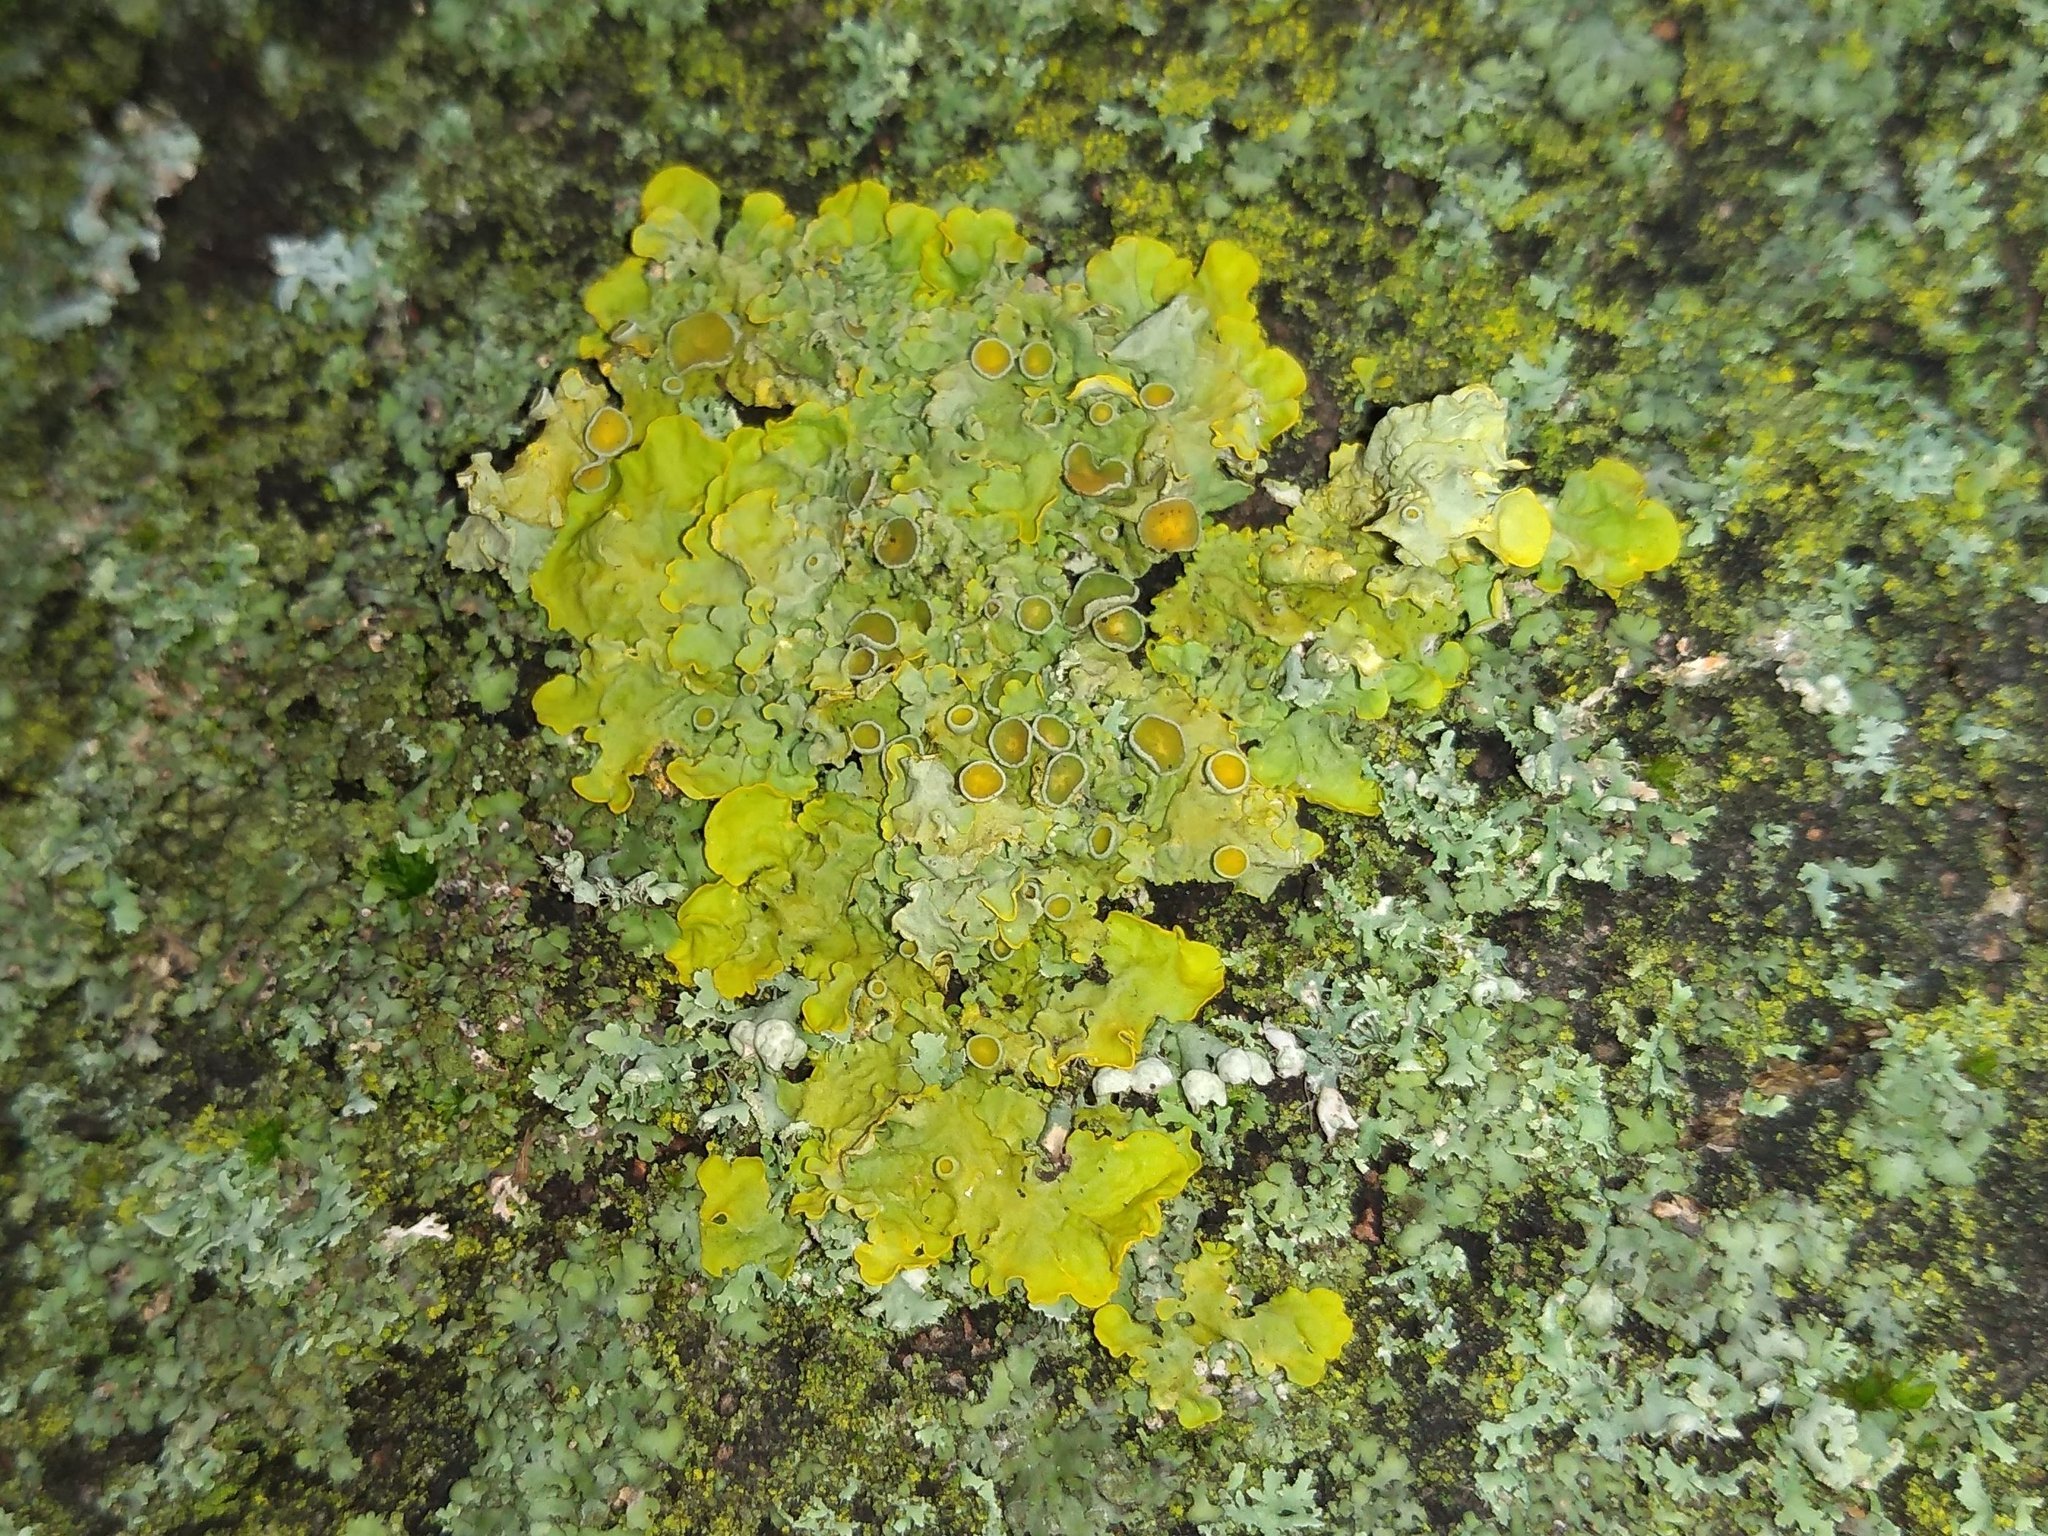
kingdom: Fungi
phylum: Ascomycota
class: Lecanoromycetes
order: Teloschistales
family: Teloschistaceae
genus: Xanthoria
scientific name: Xanthoria parietina
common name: Common orange lichen
